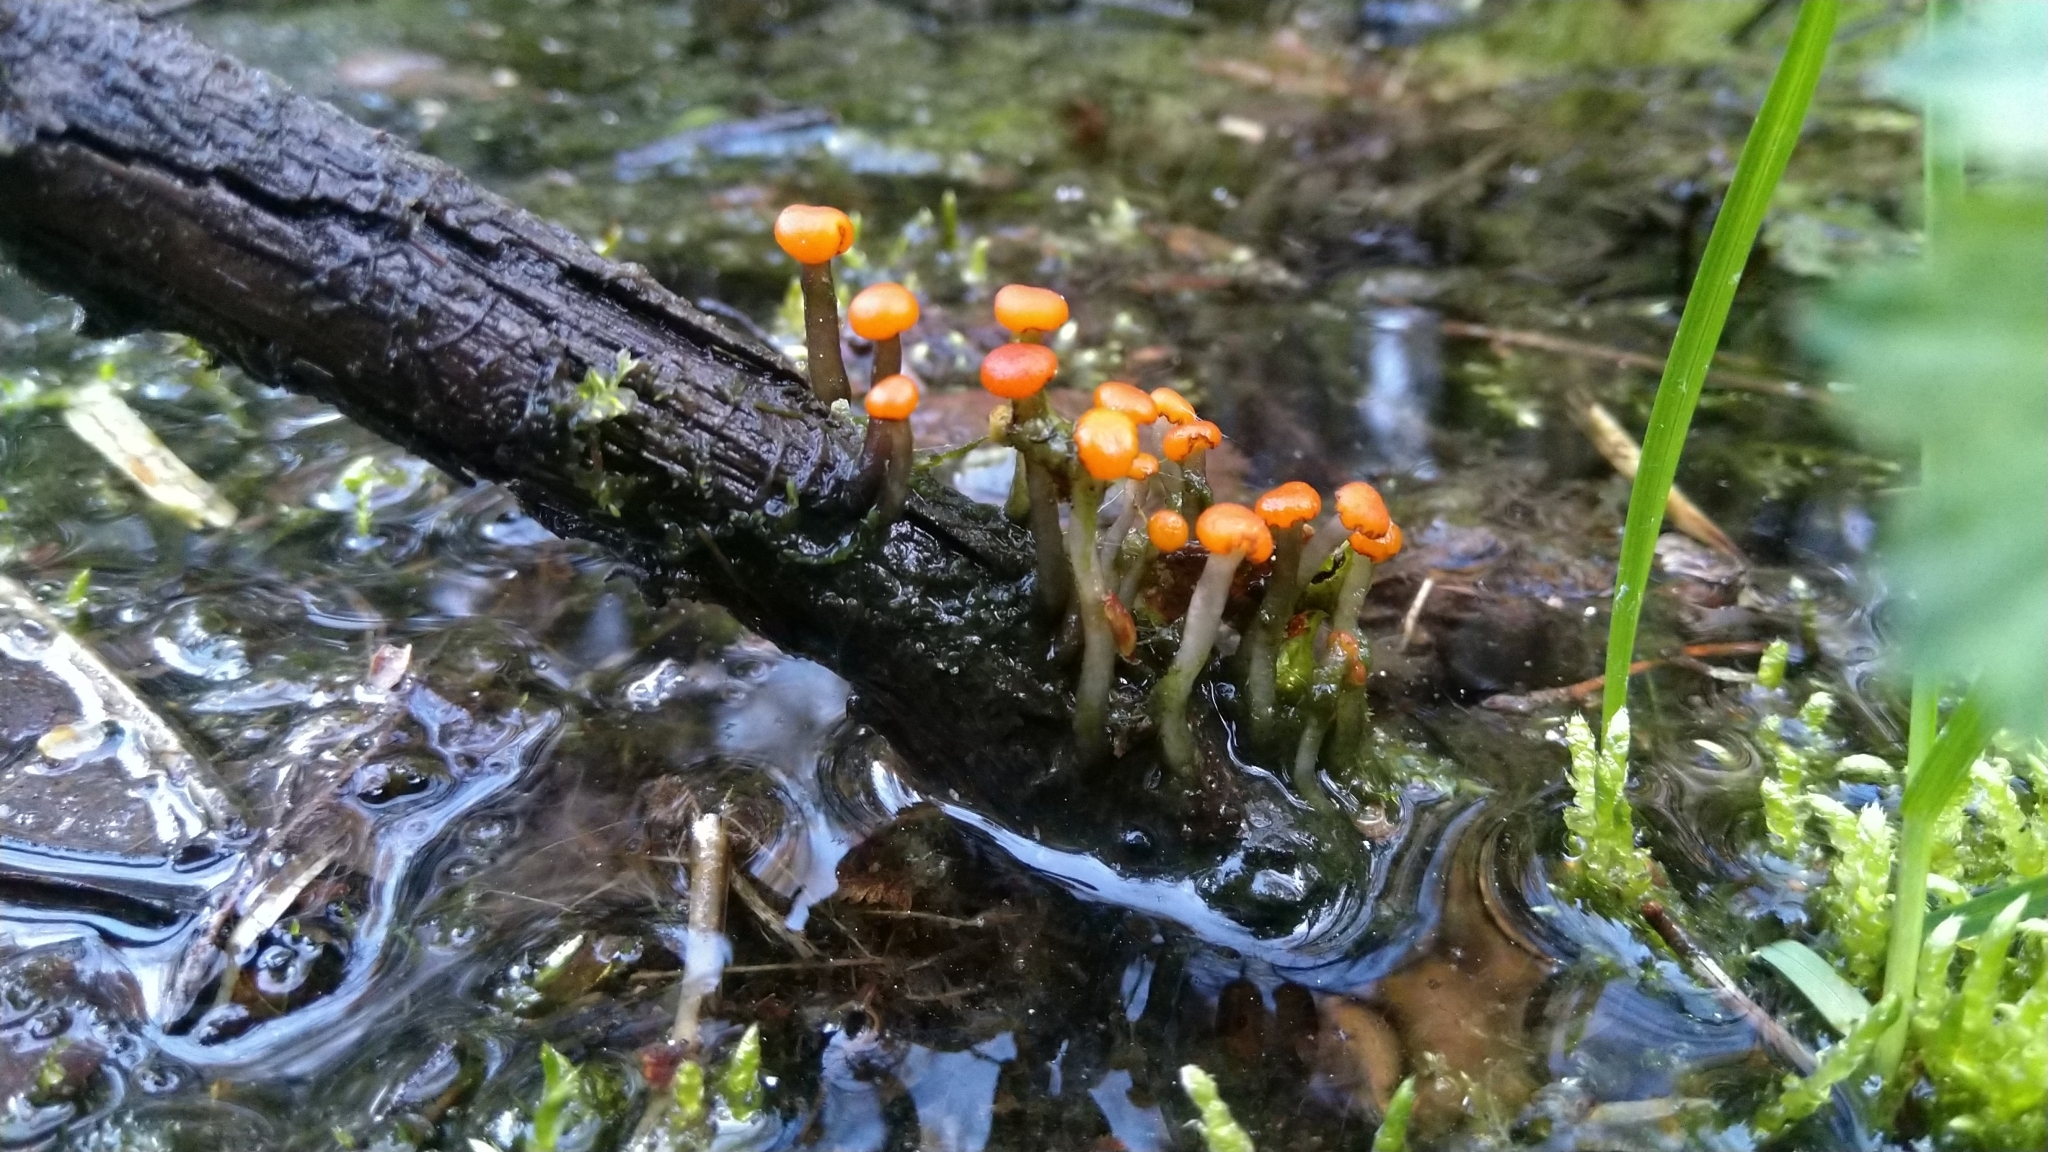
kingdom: Fungi
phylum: Ascomycota
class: Leotiomycetes
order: Helotiales
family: Vibrisseaceae
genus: Vibrissea
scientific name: Vibrissea truncorum
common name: Stream beacon
